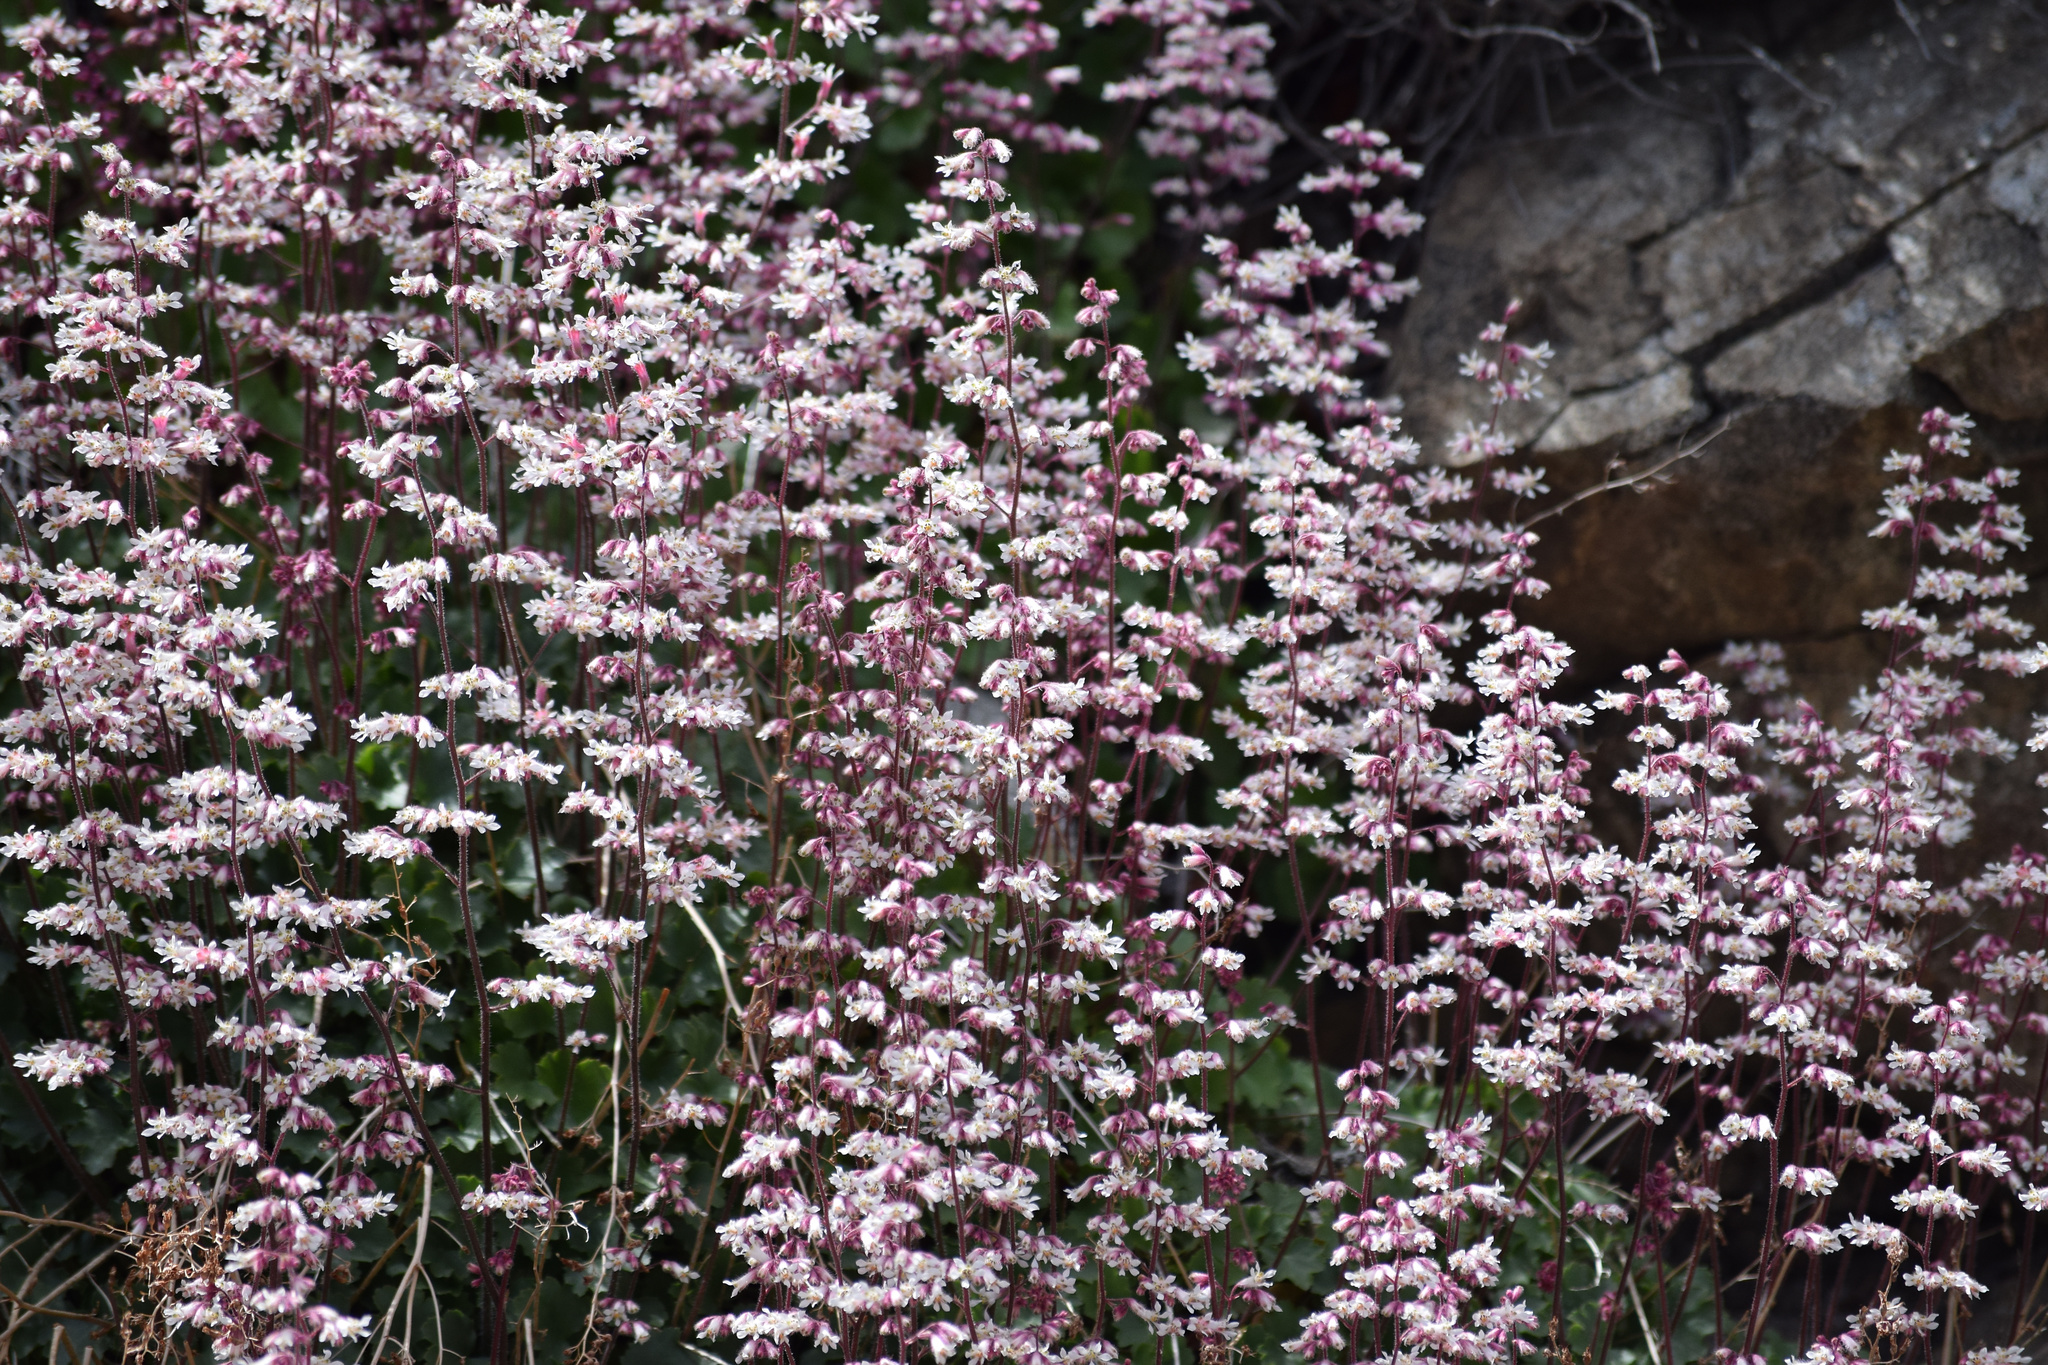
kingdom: Plantae
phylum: Tracheophyta
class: Magnoliopsida
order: Saxifragales
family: Saxifragaceae
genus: Heuchera
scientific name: Heuchera elegans
